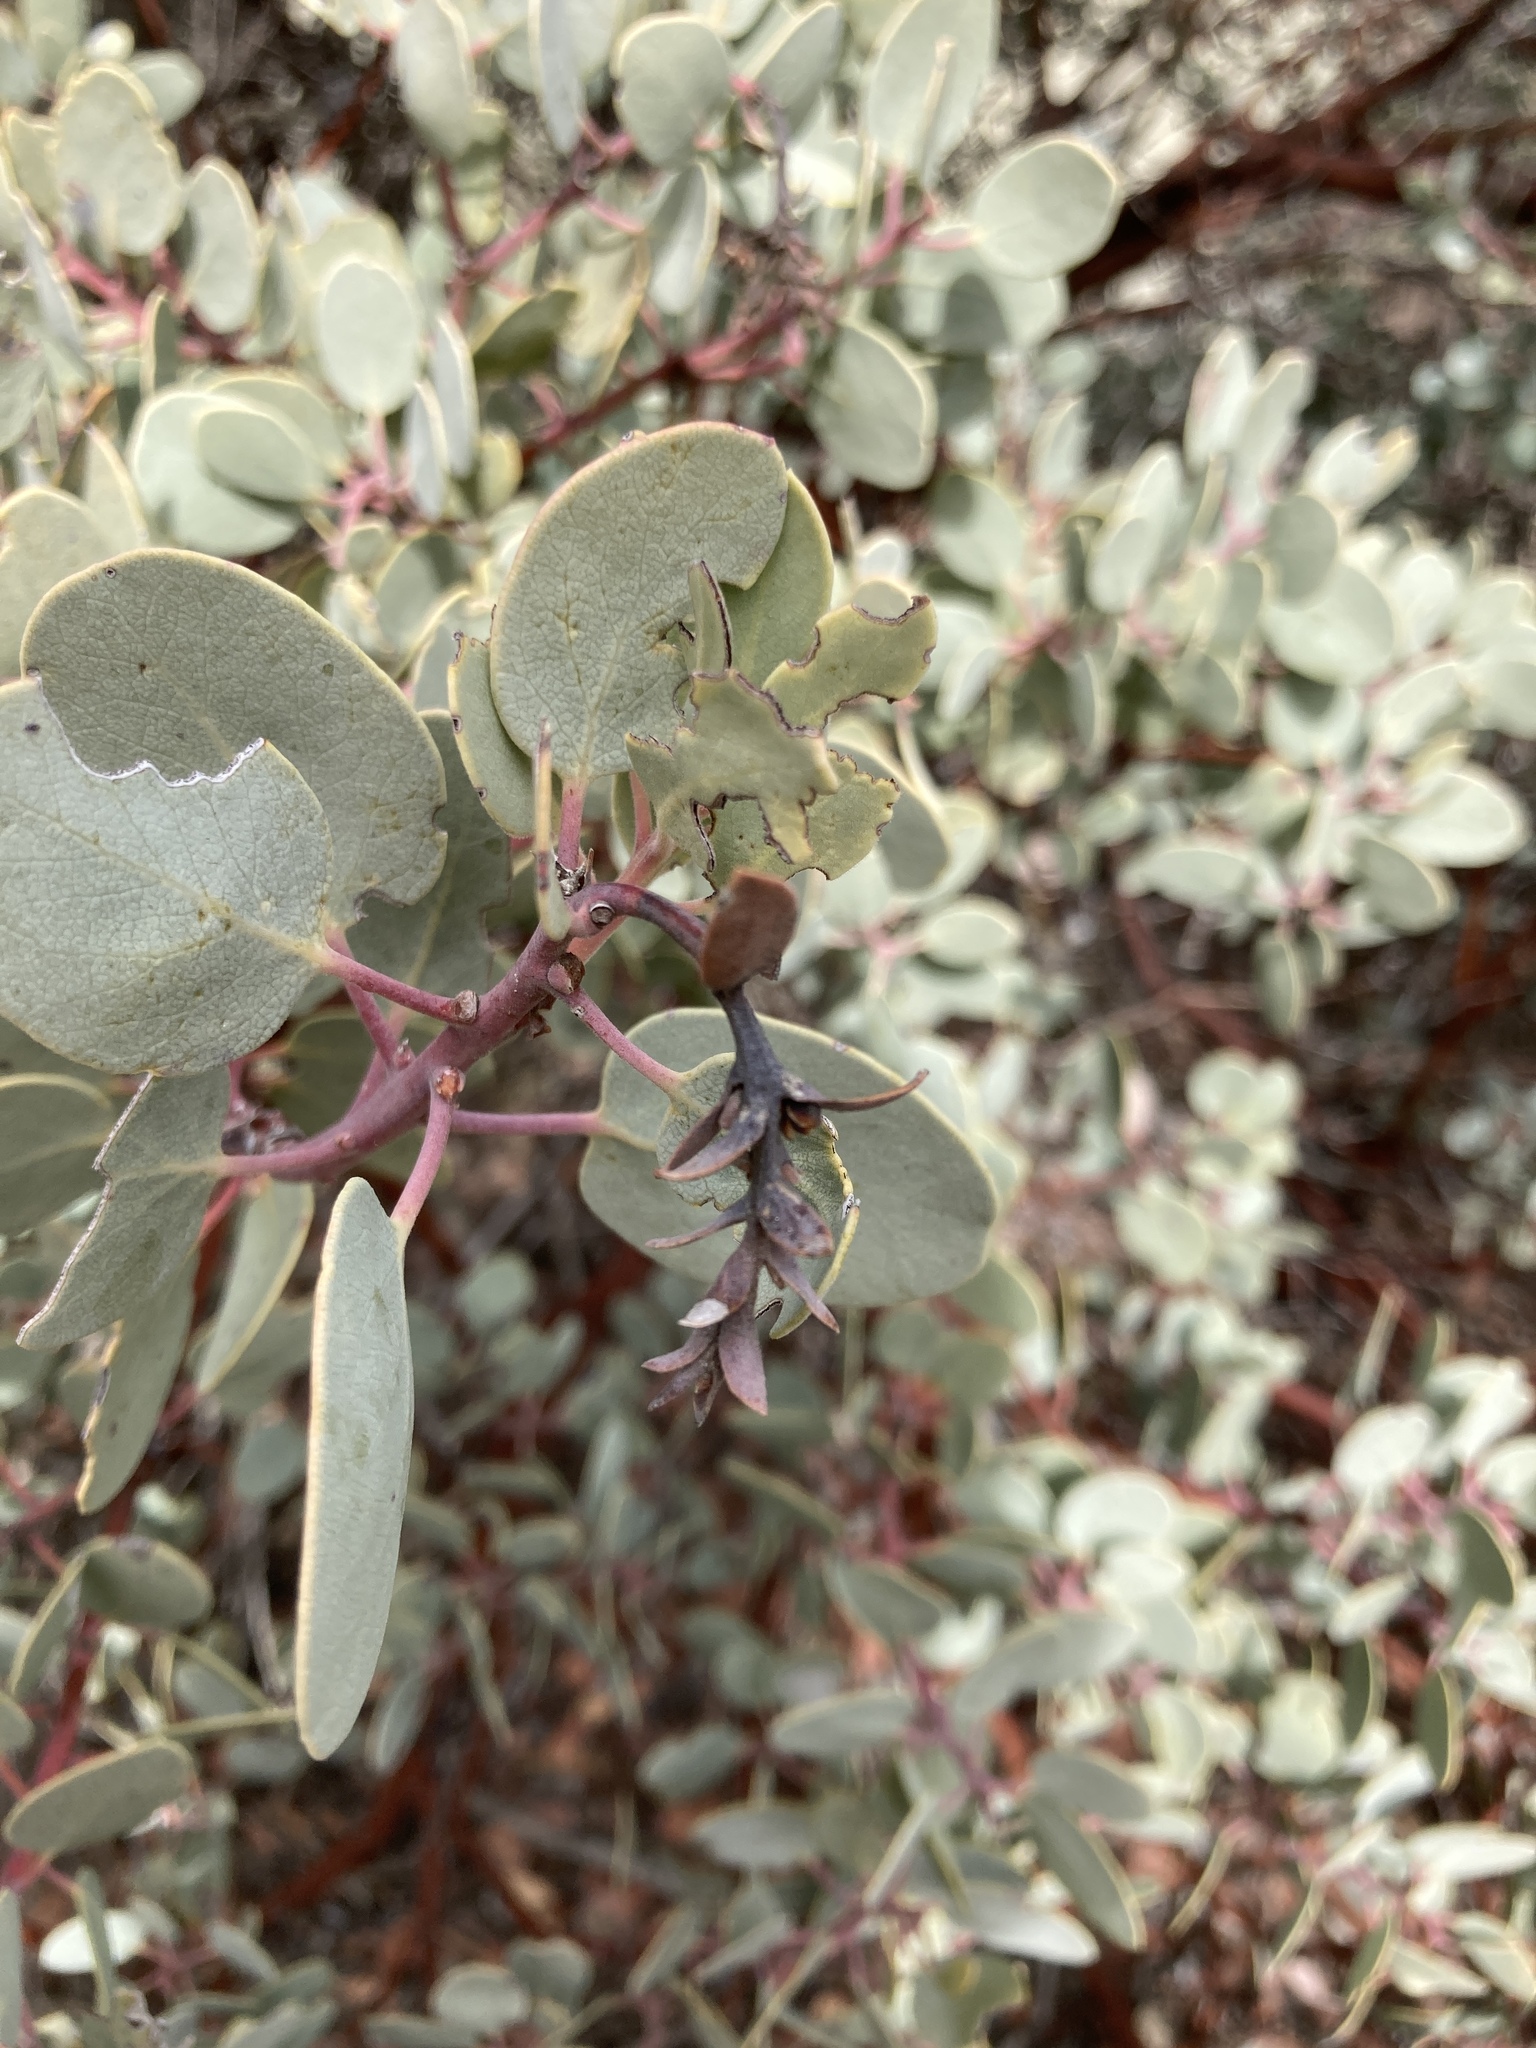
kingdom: Plantae
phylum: Tracheophyta
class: Magnoliopsida
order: Ericales
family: Ericaceae
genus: Arctostaphylos
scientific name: Arctostaphylos glauca
